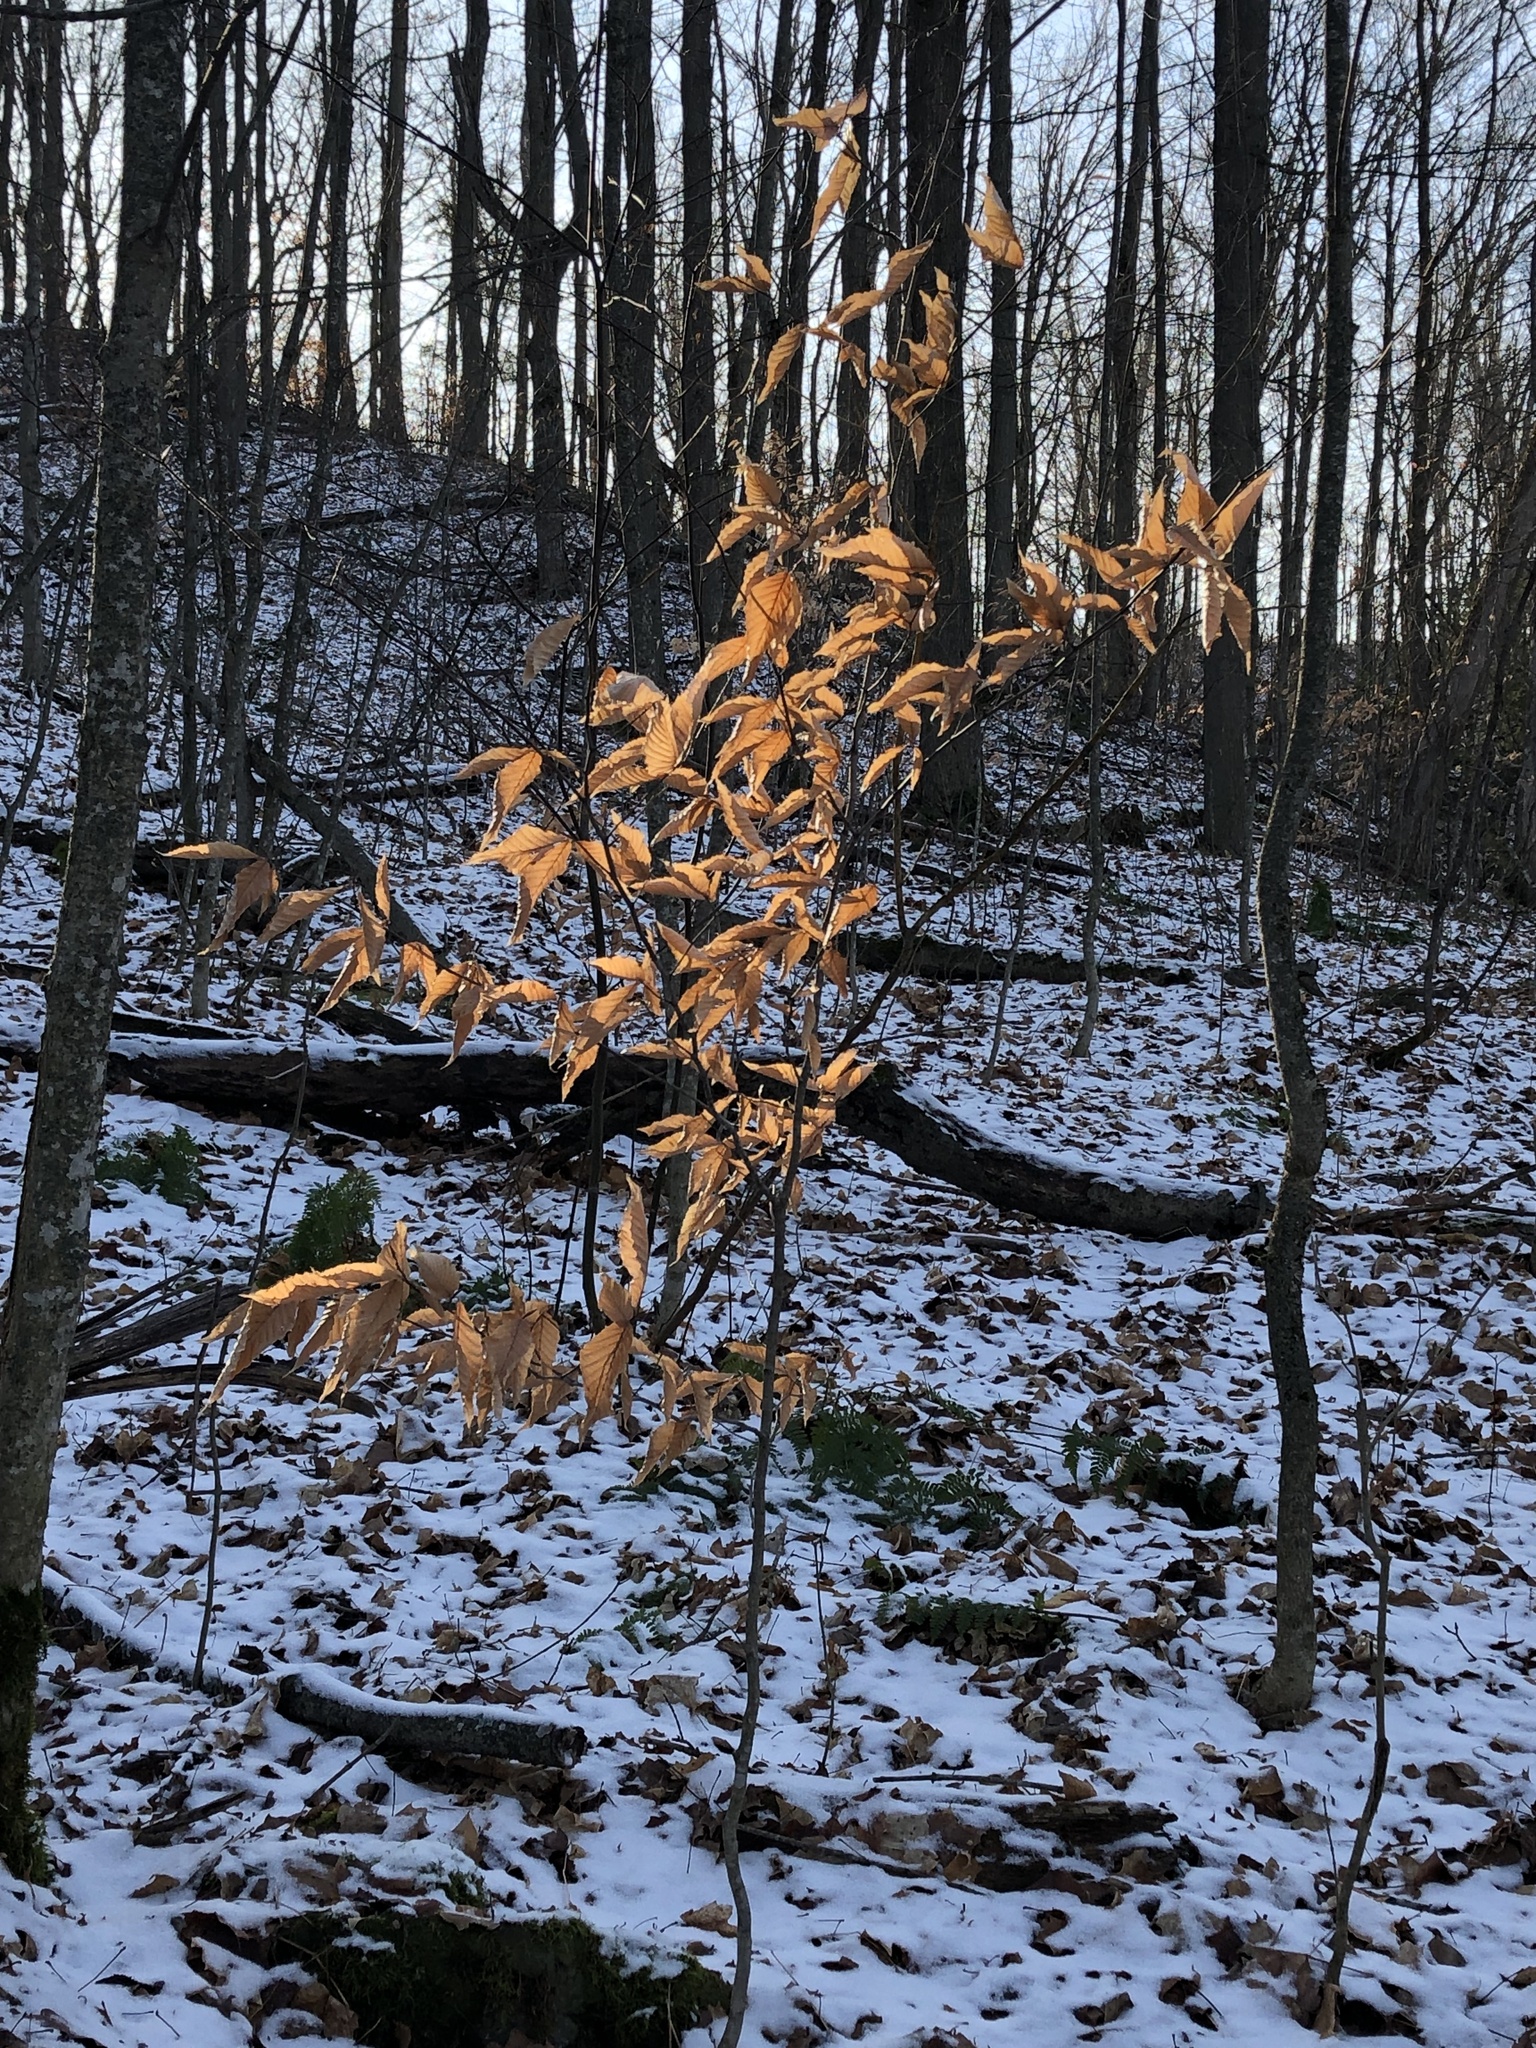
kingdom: Plantae
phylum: Tracheophyta
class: Magnoliopsida
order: Fagales
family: Fagaceae
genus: Fagus
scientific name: Fagus grandifolia
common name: American beech
